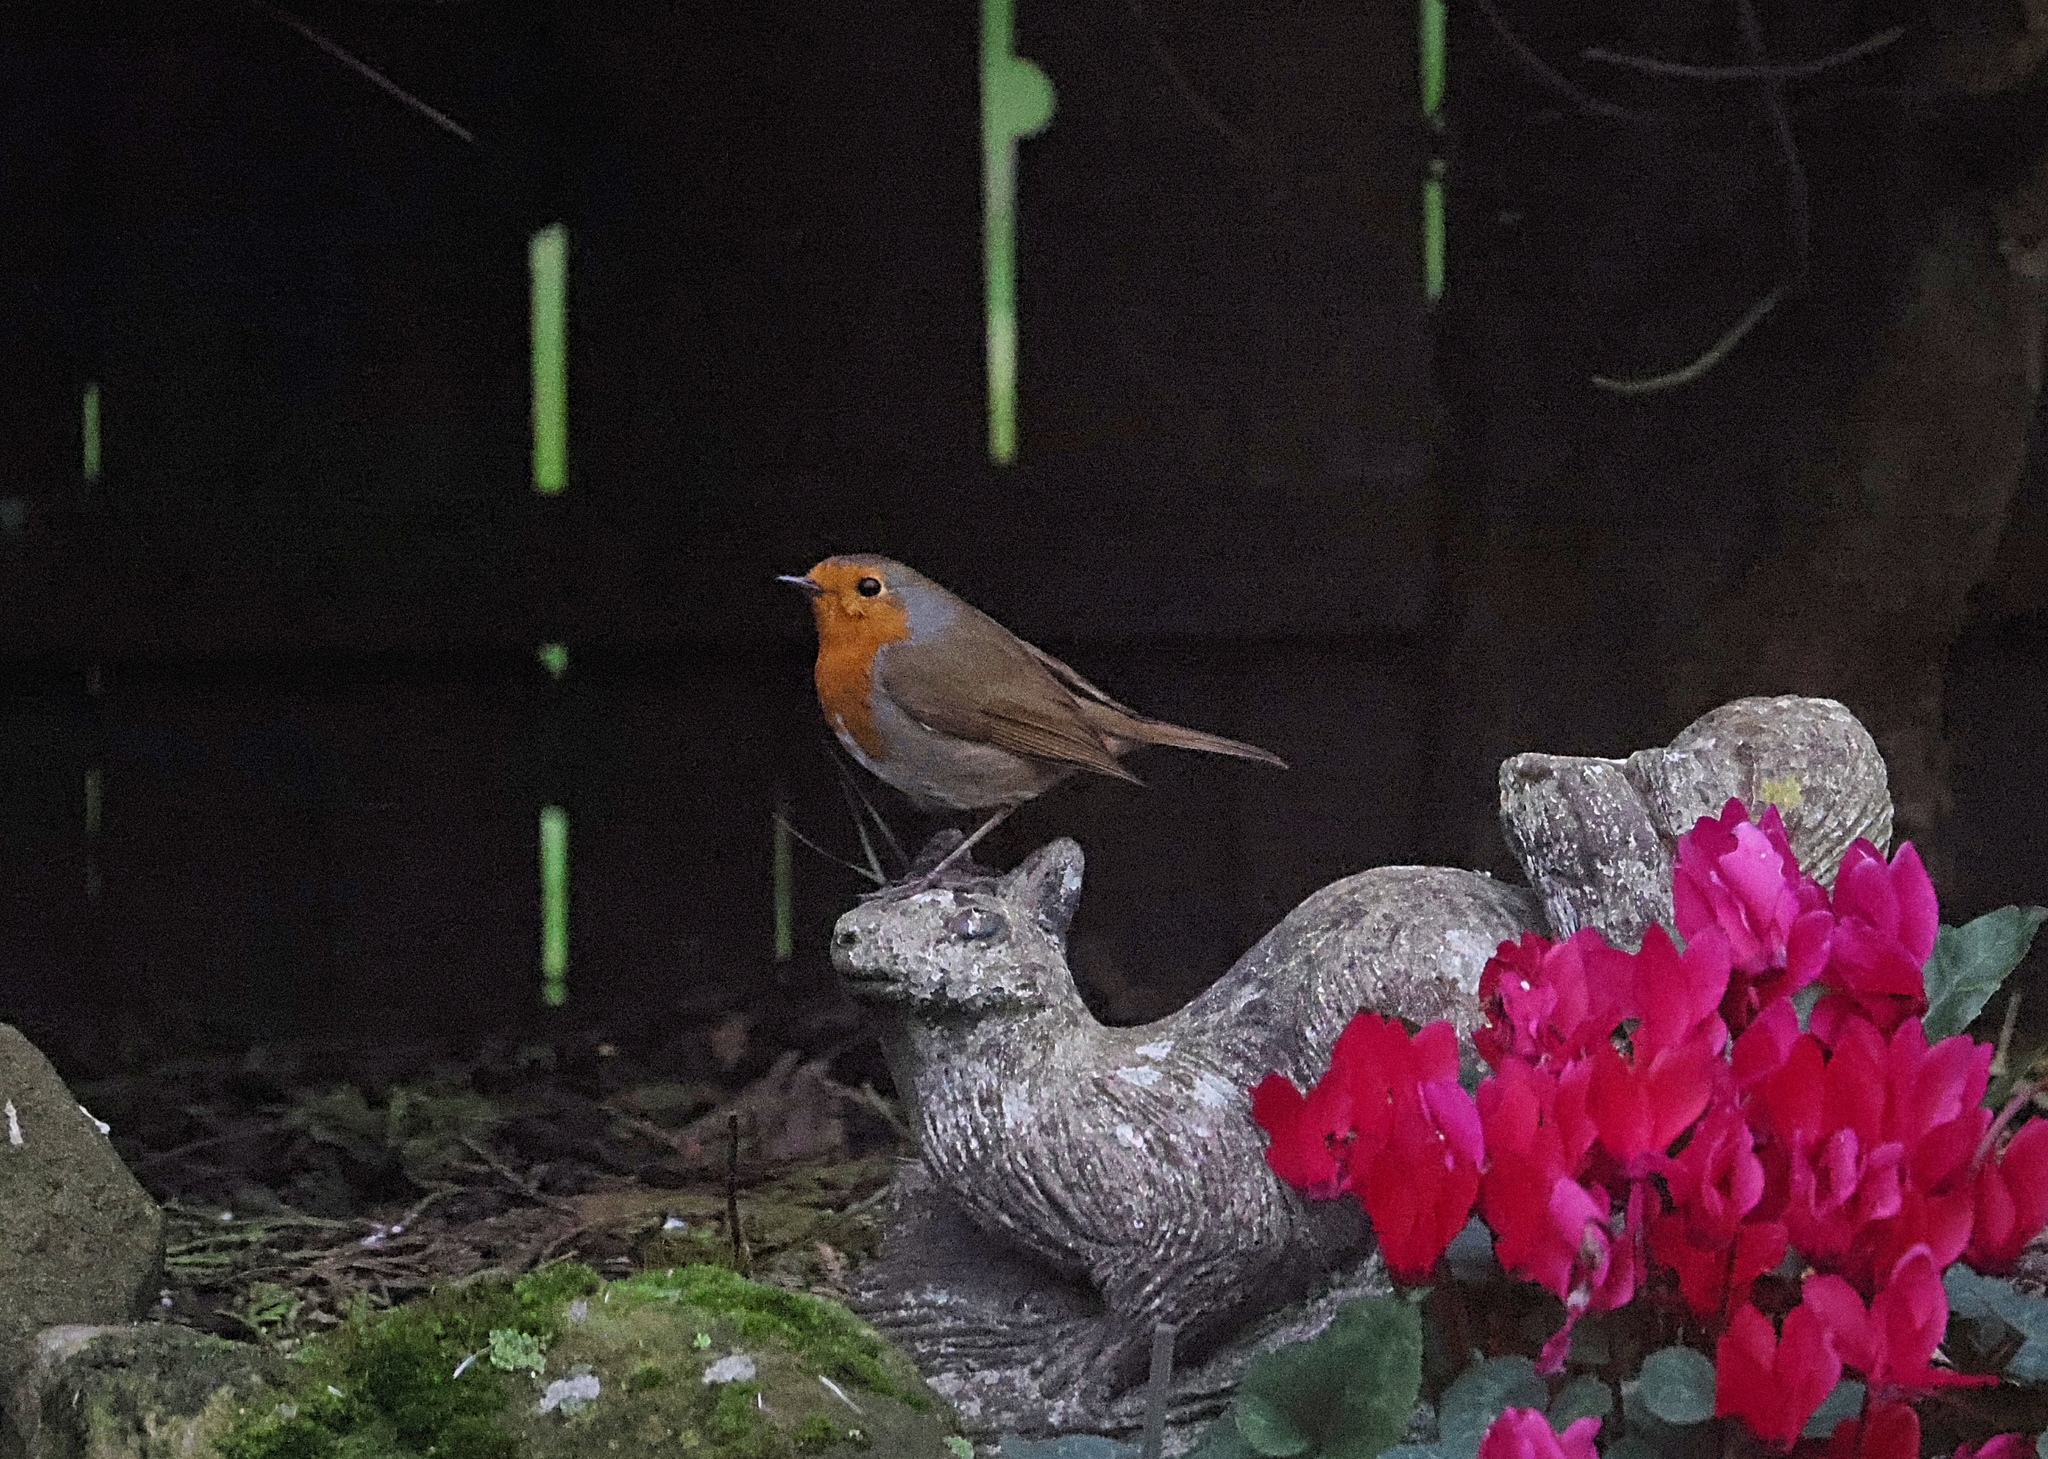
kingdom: Animalia
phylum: Chordata
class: Aves
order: Passeriformes
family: Muscicapidae
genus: Erithacus
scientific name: Erithacus rubecula
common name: European robin
